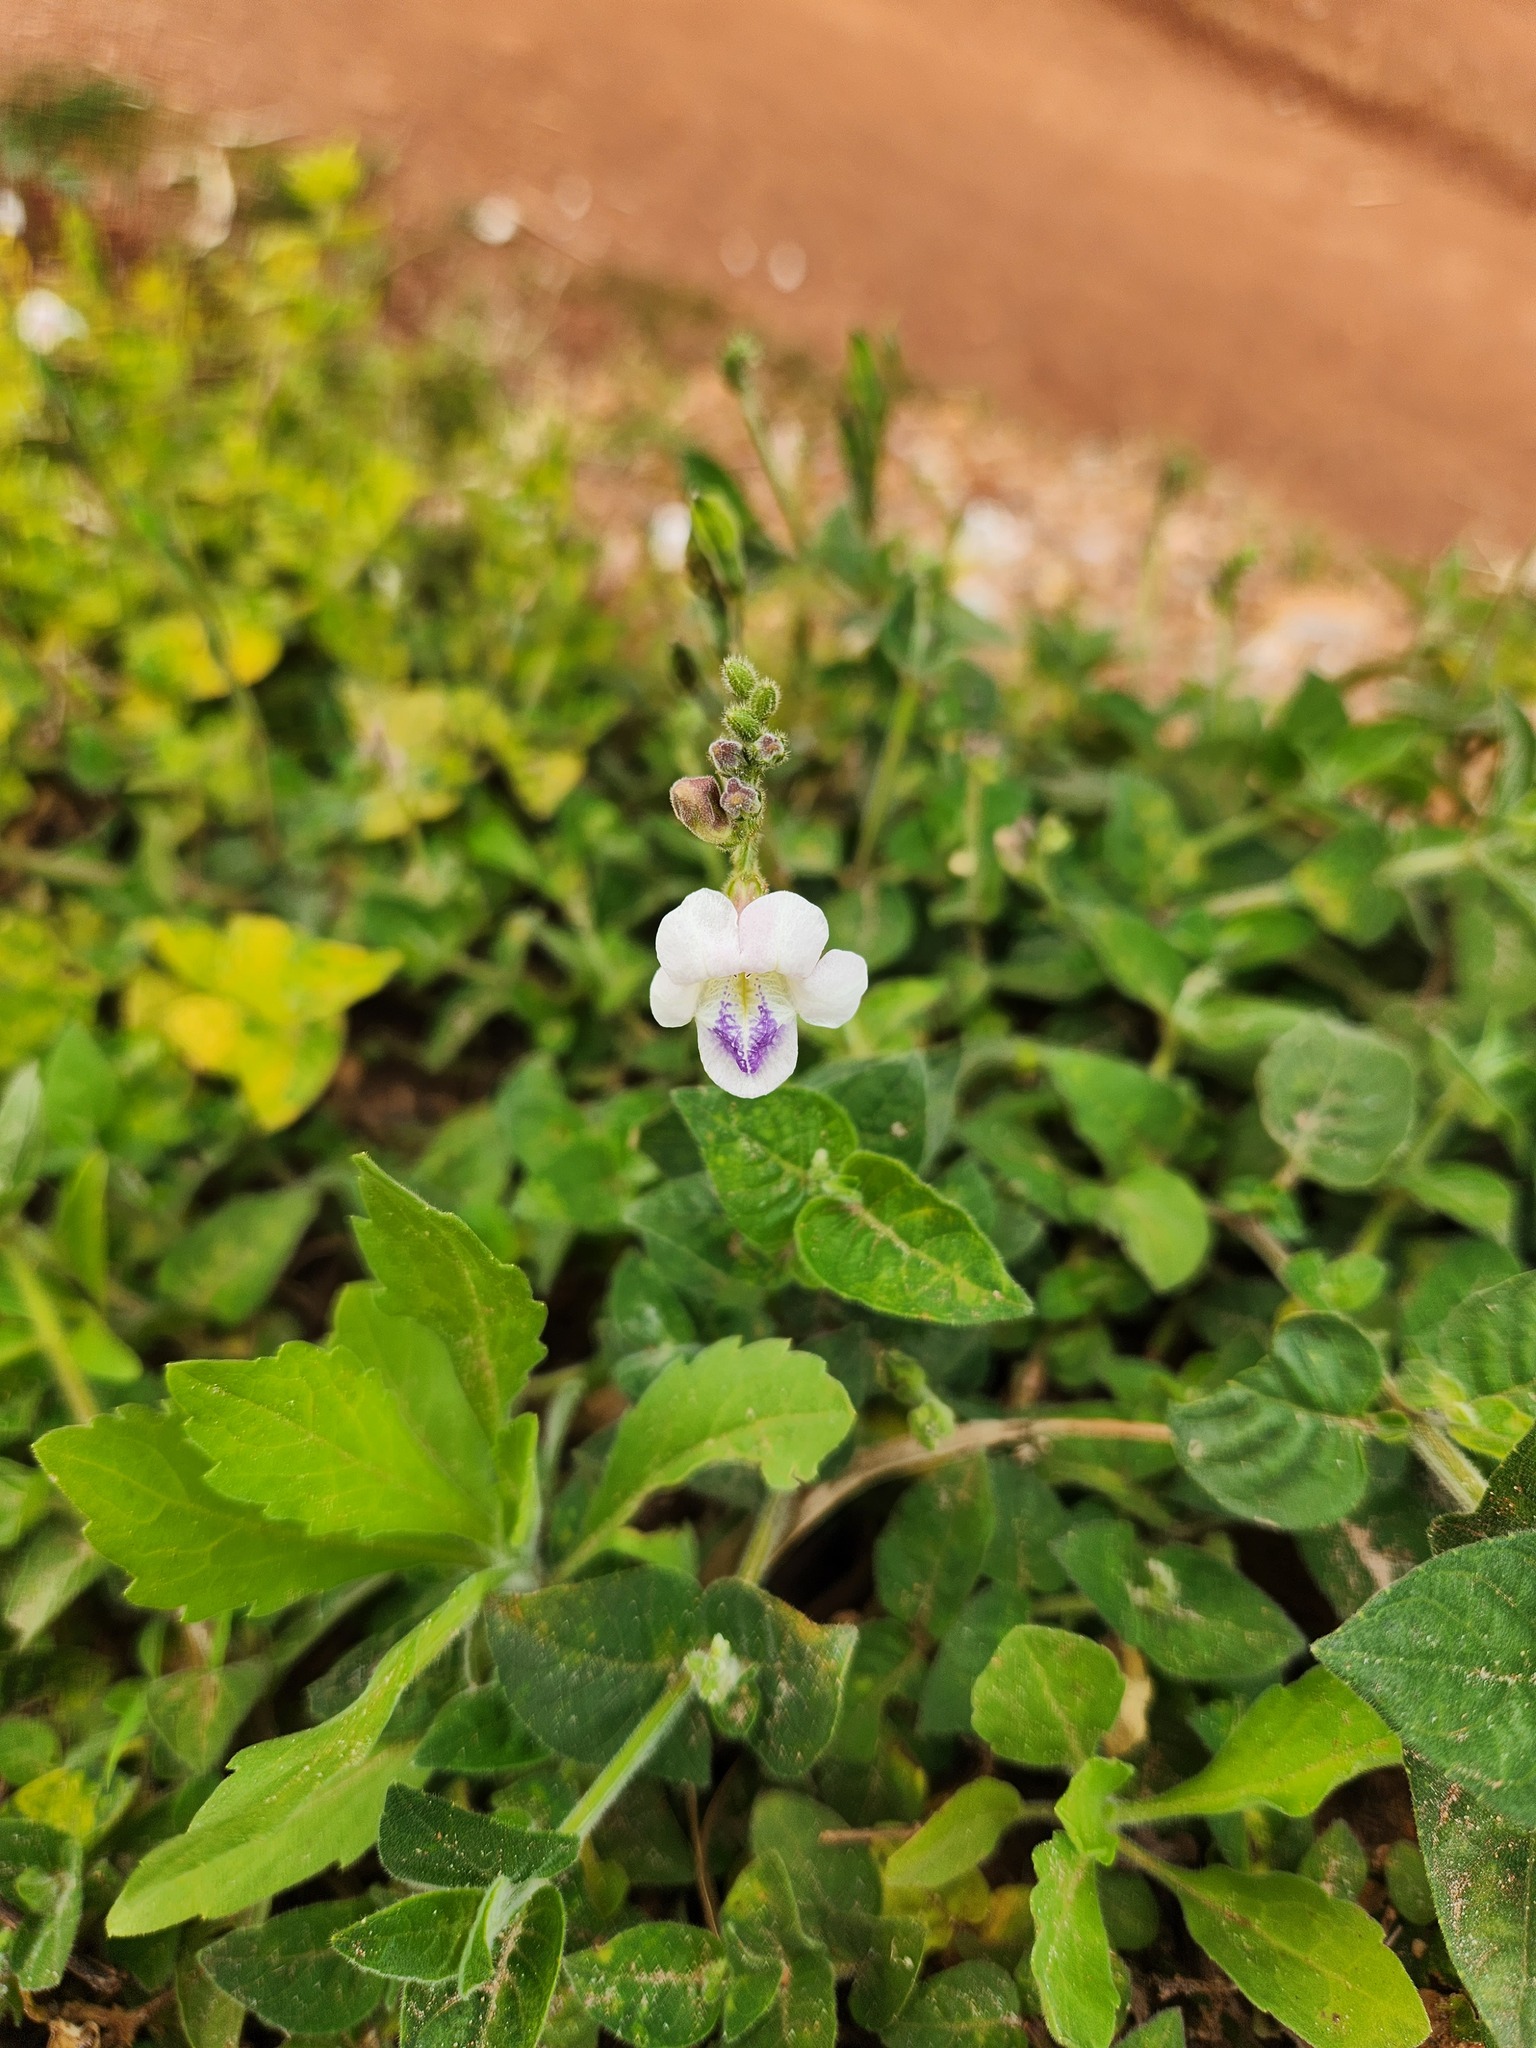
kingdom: Plantae
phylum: Tracheophyta
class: Magnoliopsida
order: Lamiales
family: Acanthaceae
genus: Asystasia
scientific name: Asystasia intrusa
